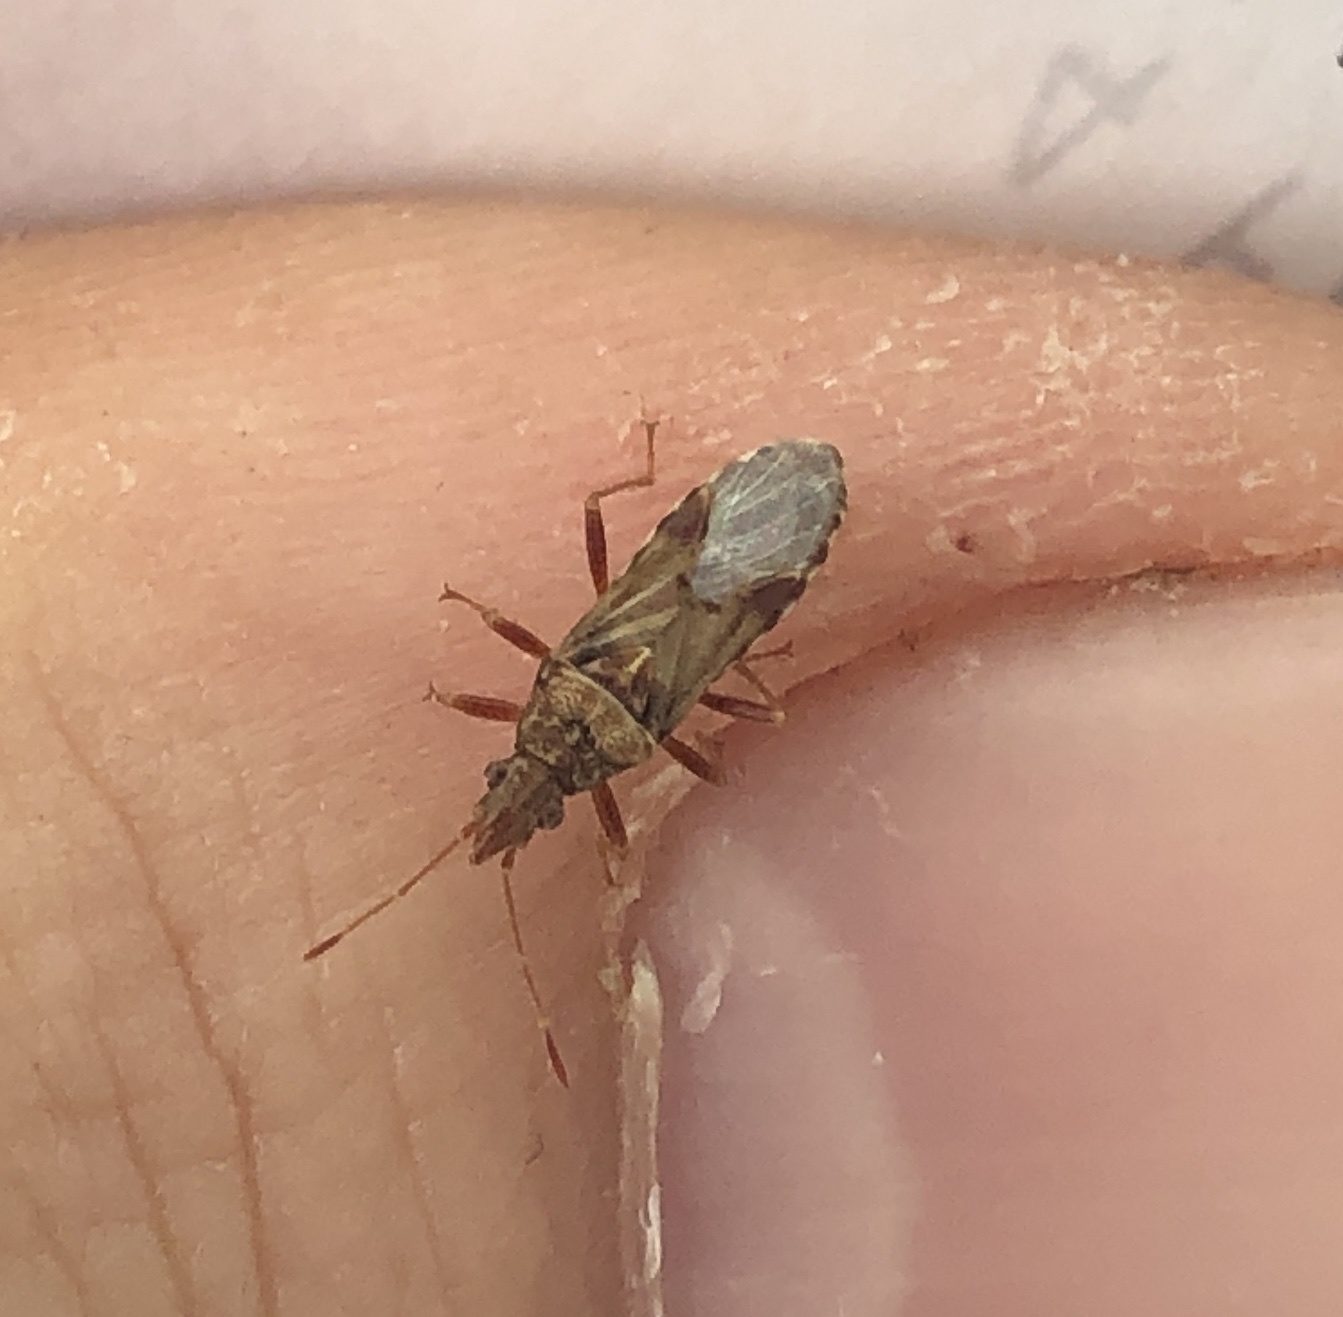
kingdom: Animalia
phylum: Arthropoda
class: Insecta
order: Hemiptera
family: Lygaeidae
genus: Belonochilus
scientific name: Belonochilus numenius
